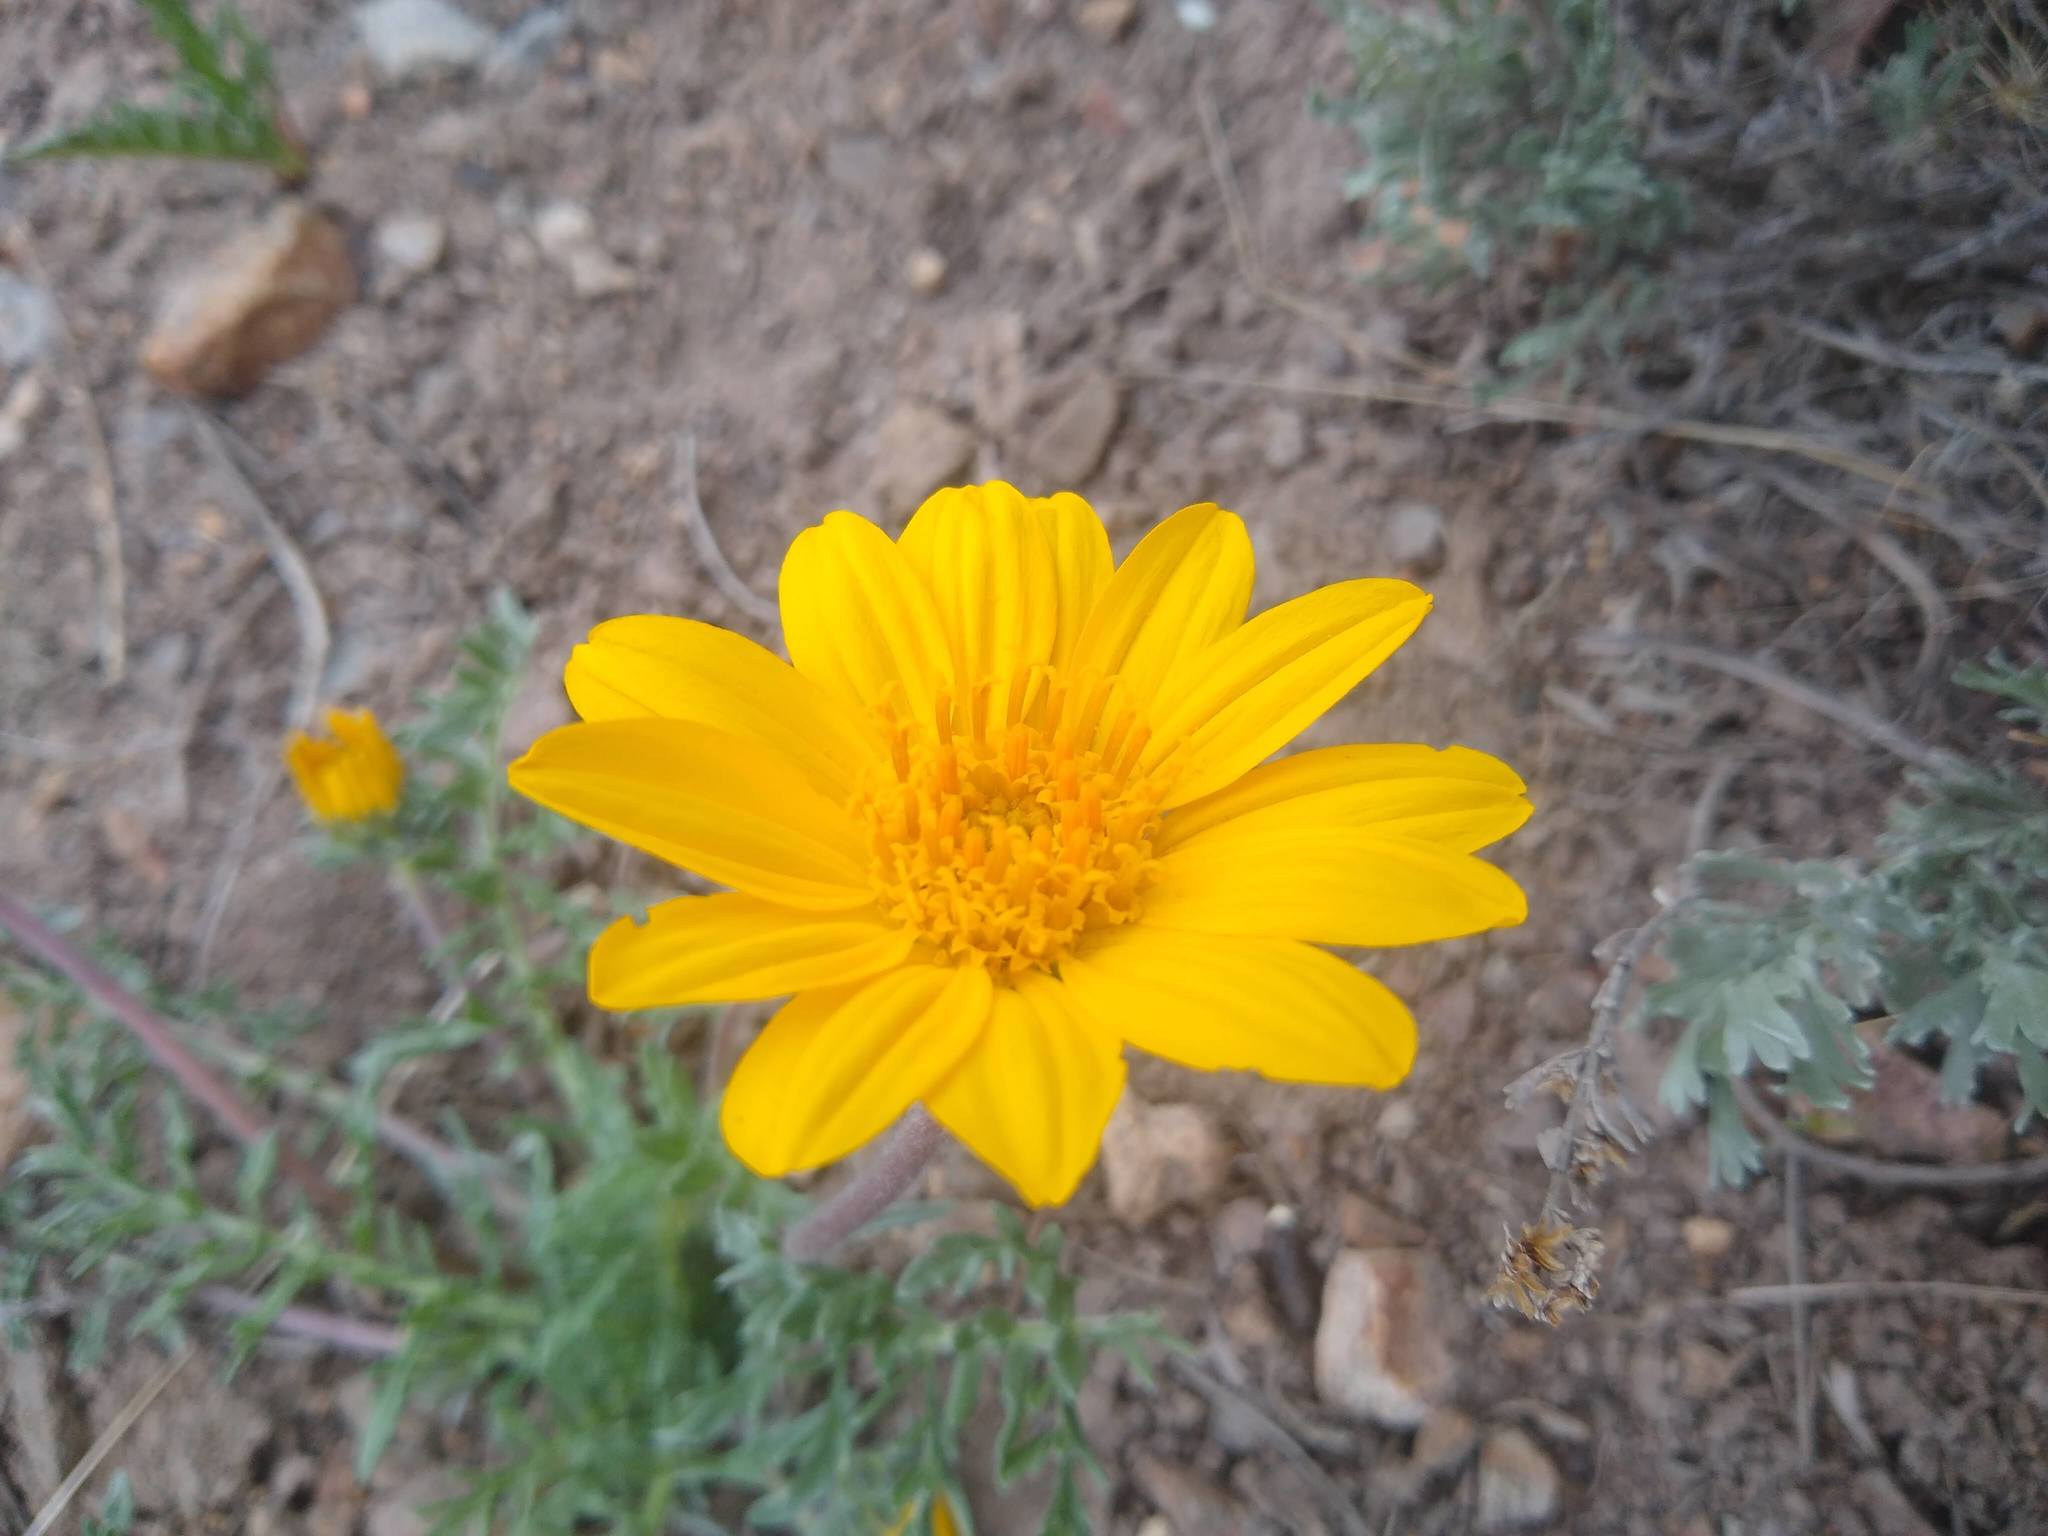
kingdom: Plantae
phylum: Tracheophyta
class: Magnoliopsida
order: Asterales
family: Asteraceae
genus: Balsamorhiza
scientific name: Balsamorhiza hookeri
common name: Hooker's balsamroot
